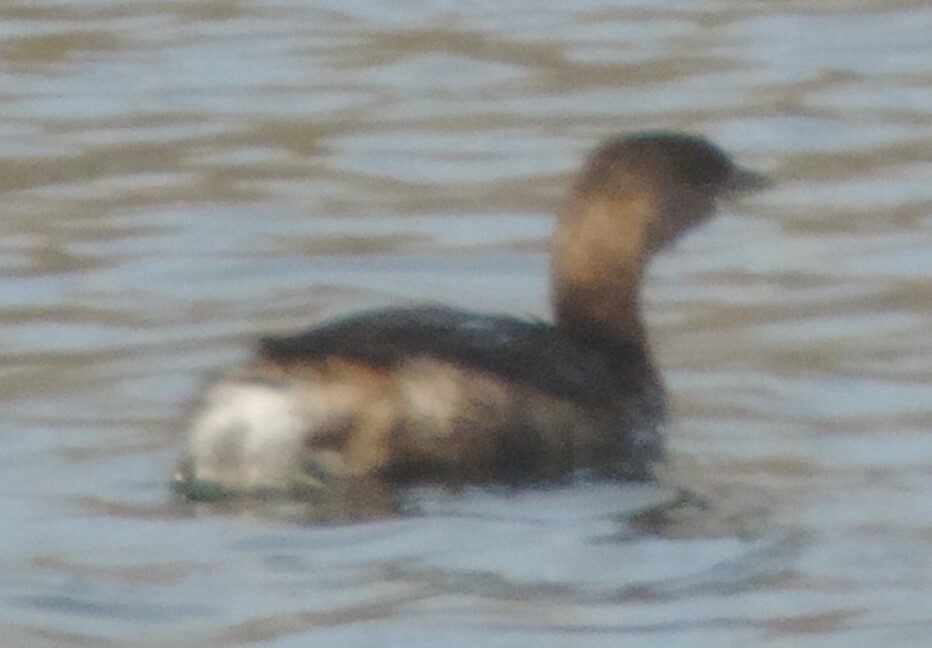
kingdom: Animalia
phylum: Chordata
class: Aves
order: Podicipediformes
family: Podicipedidae
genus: Podilymbus
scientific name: Podilymbus podiceps
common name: Pied-billed grebe
